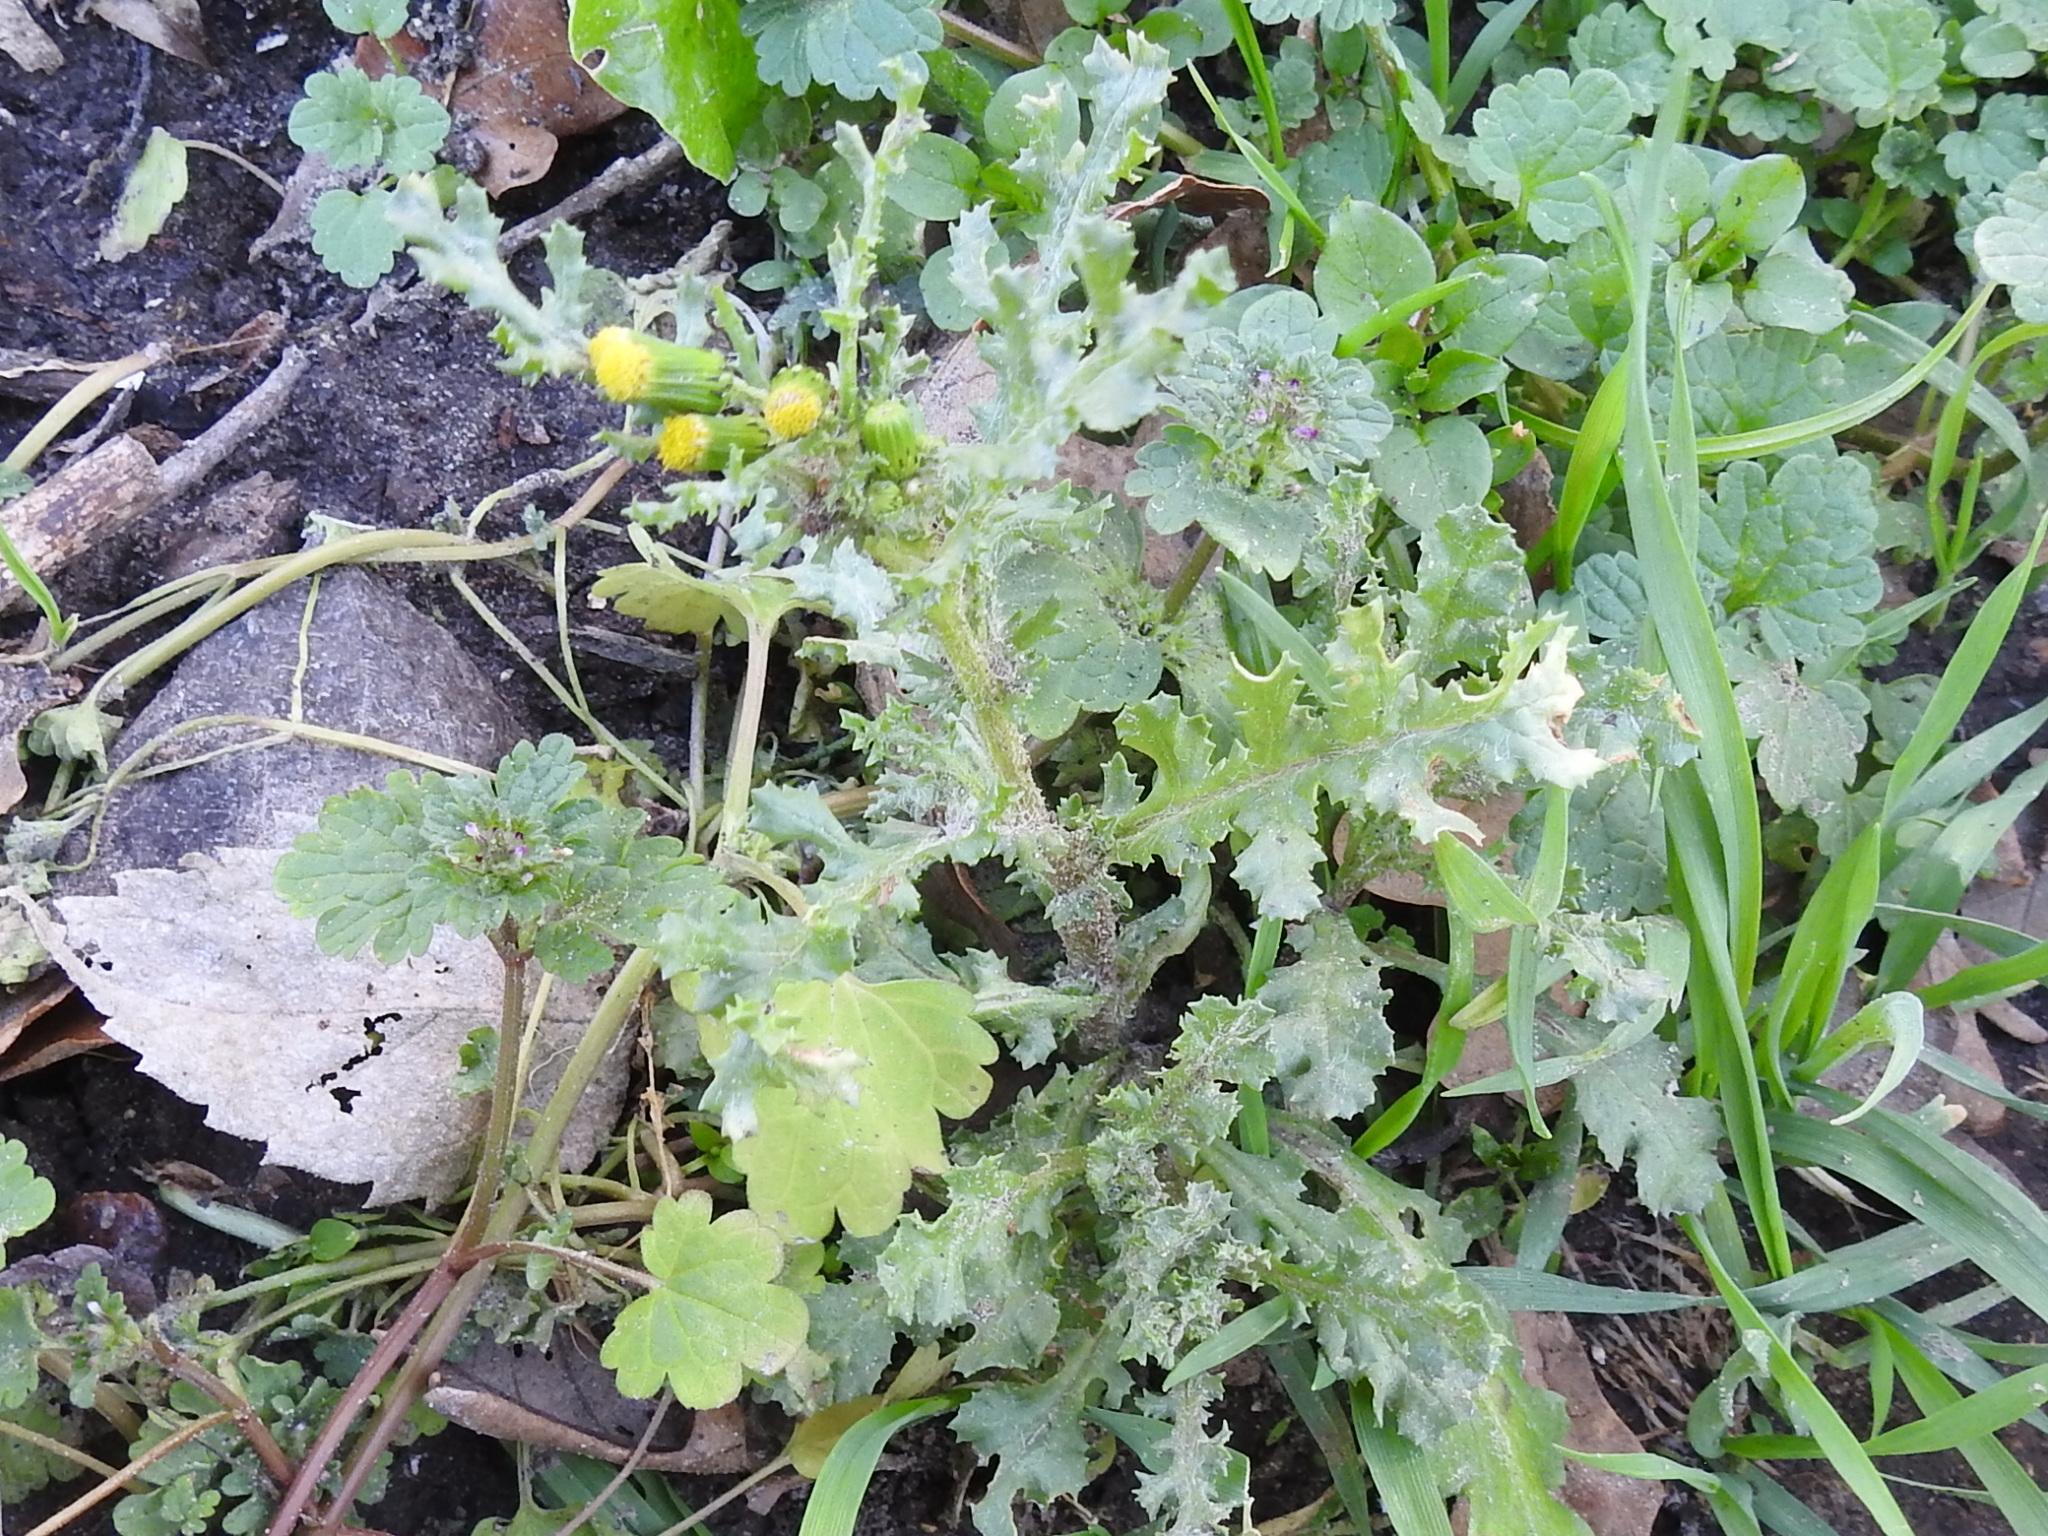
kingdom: Plantae
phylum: Tracheophyta
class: Magnoliopsida
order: Asterales
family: Asteraceae
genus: Senecio
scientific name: Senecio vulgaris
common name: Old-man-in-the-spring
